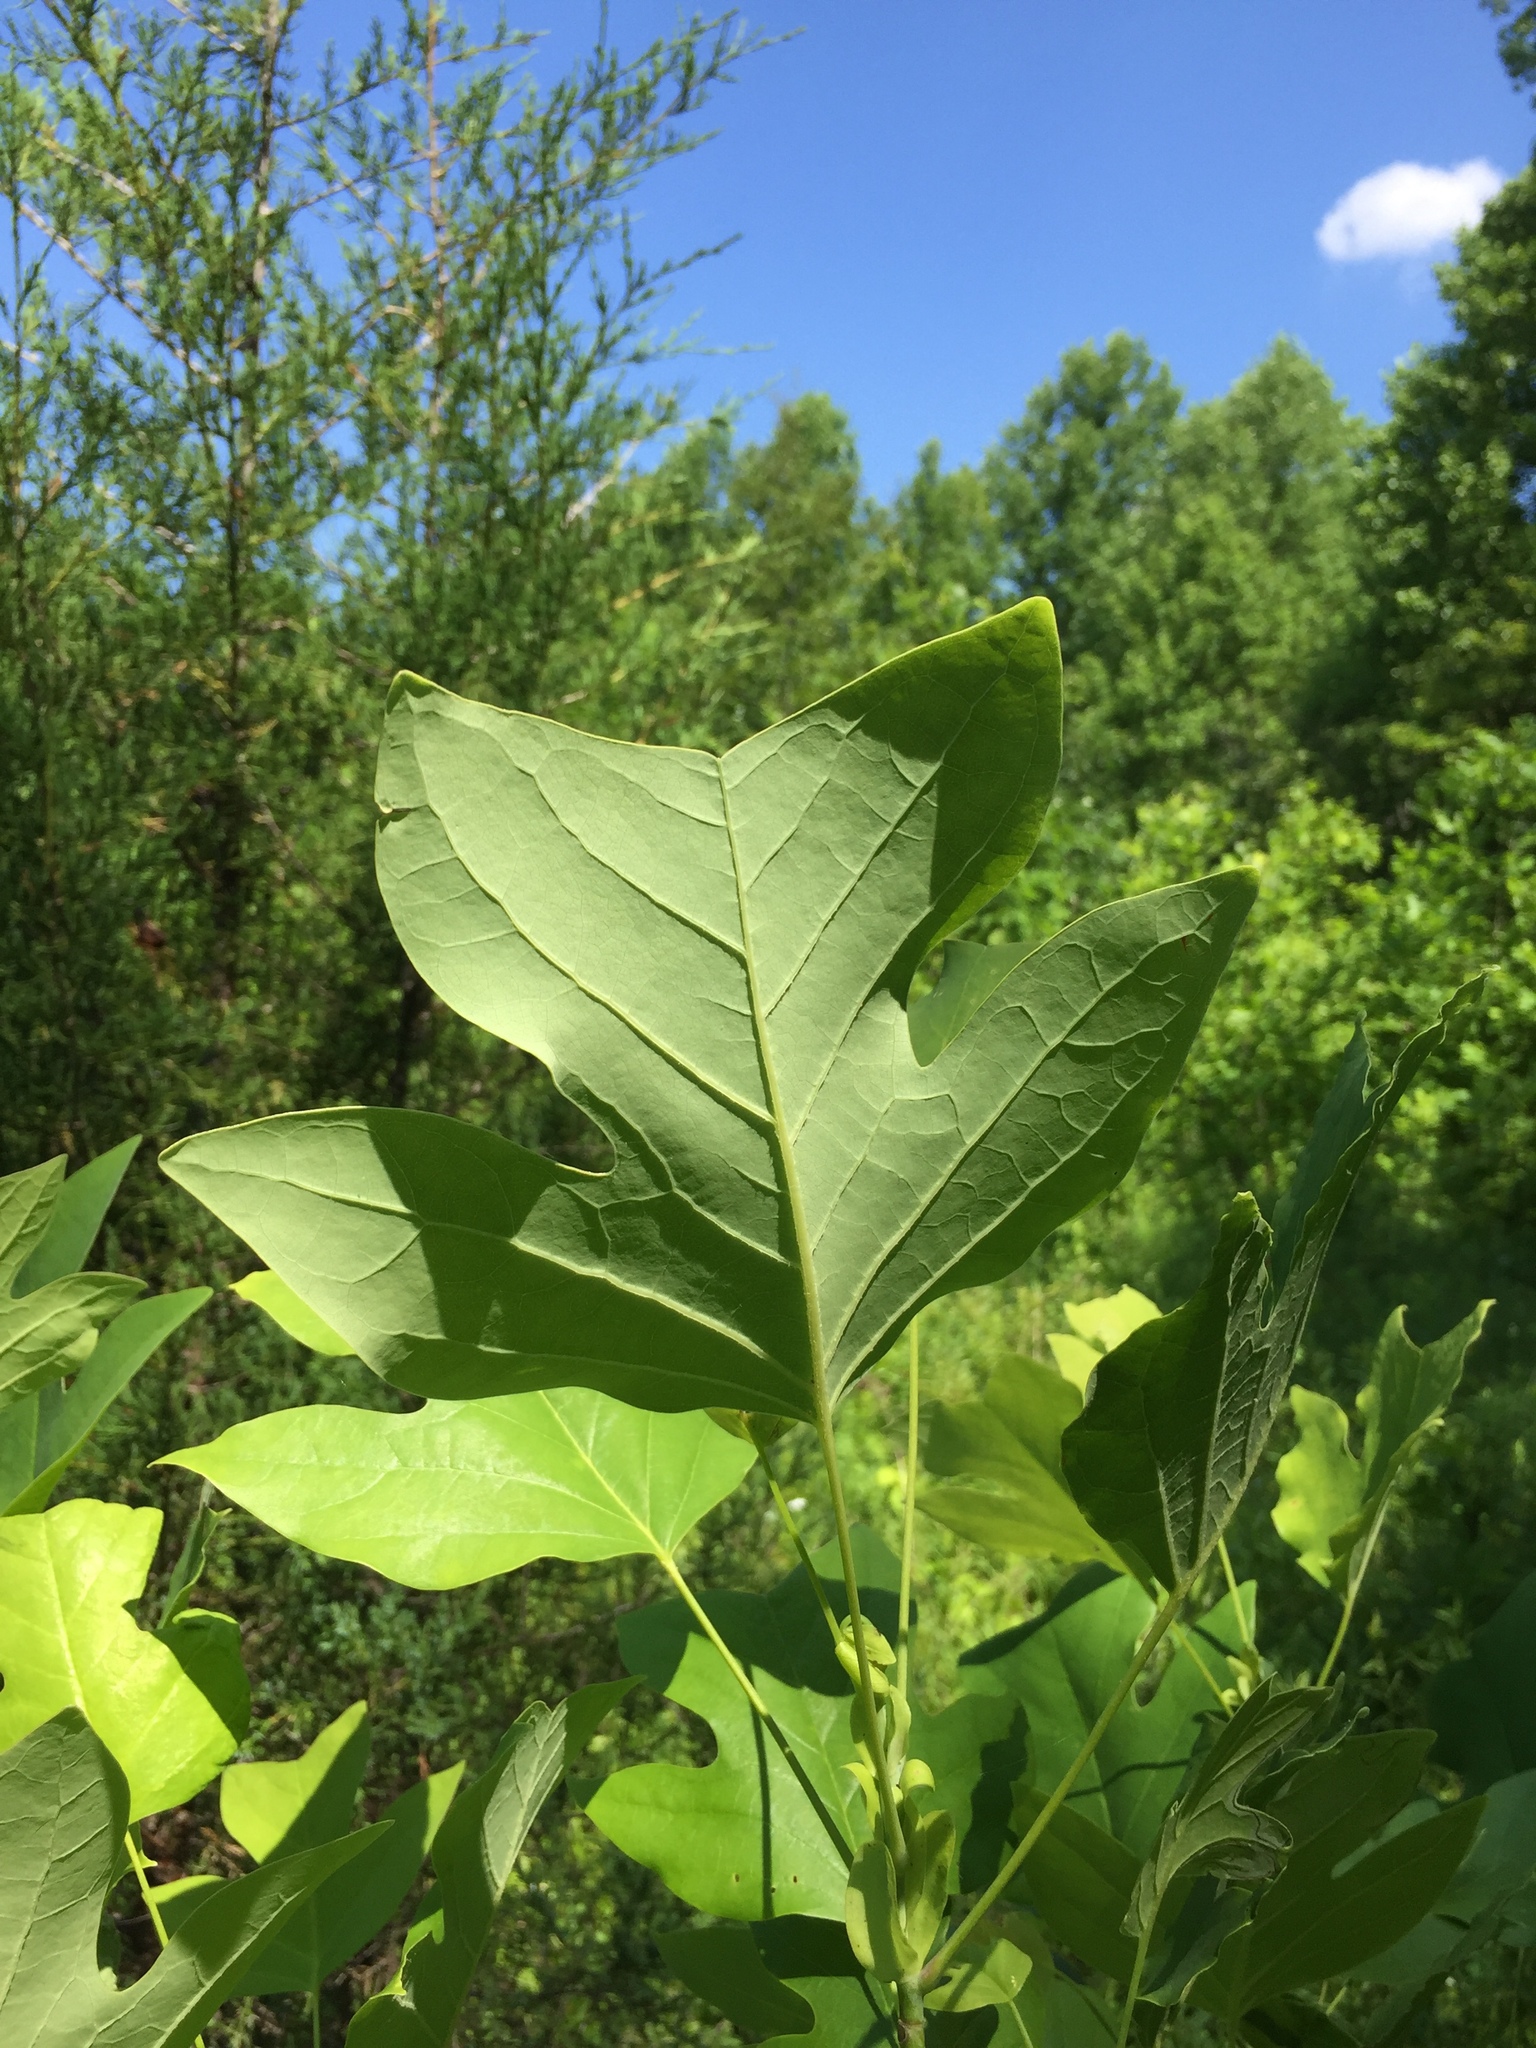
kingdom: Plantae
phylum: Tracheophyta
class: Magnoliopsida
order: Magnoliales
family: Magnoliaceae
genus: Liriodendron
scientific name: Liriodendron tulipifera
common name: Tulip tree
